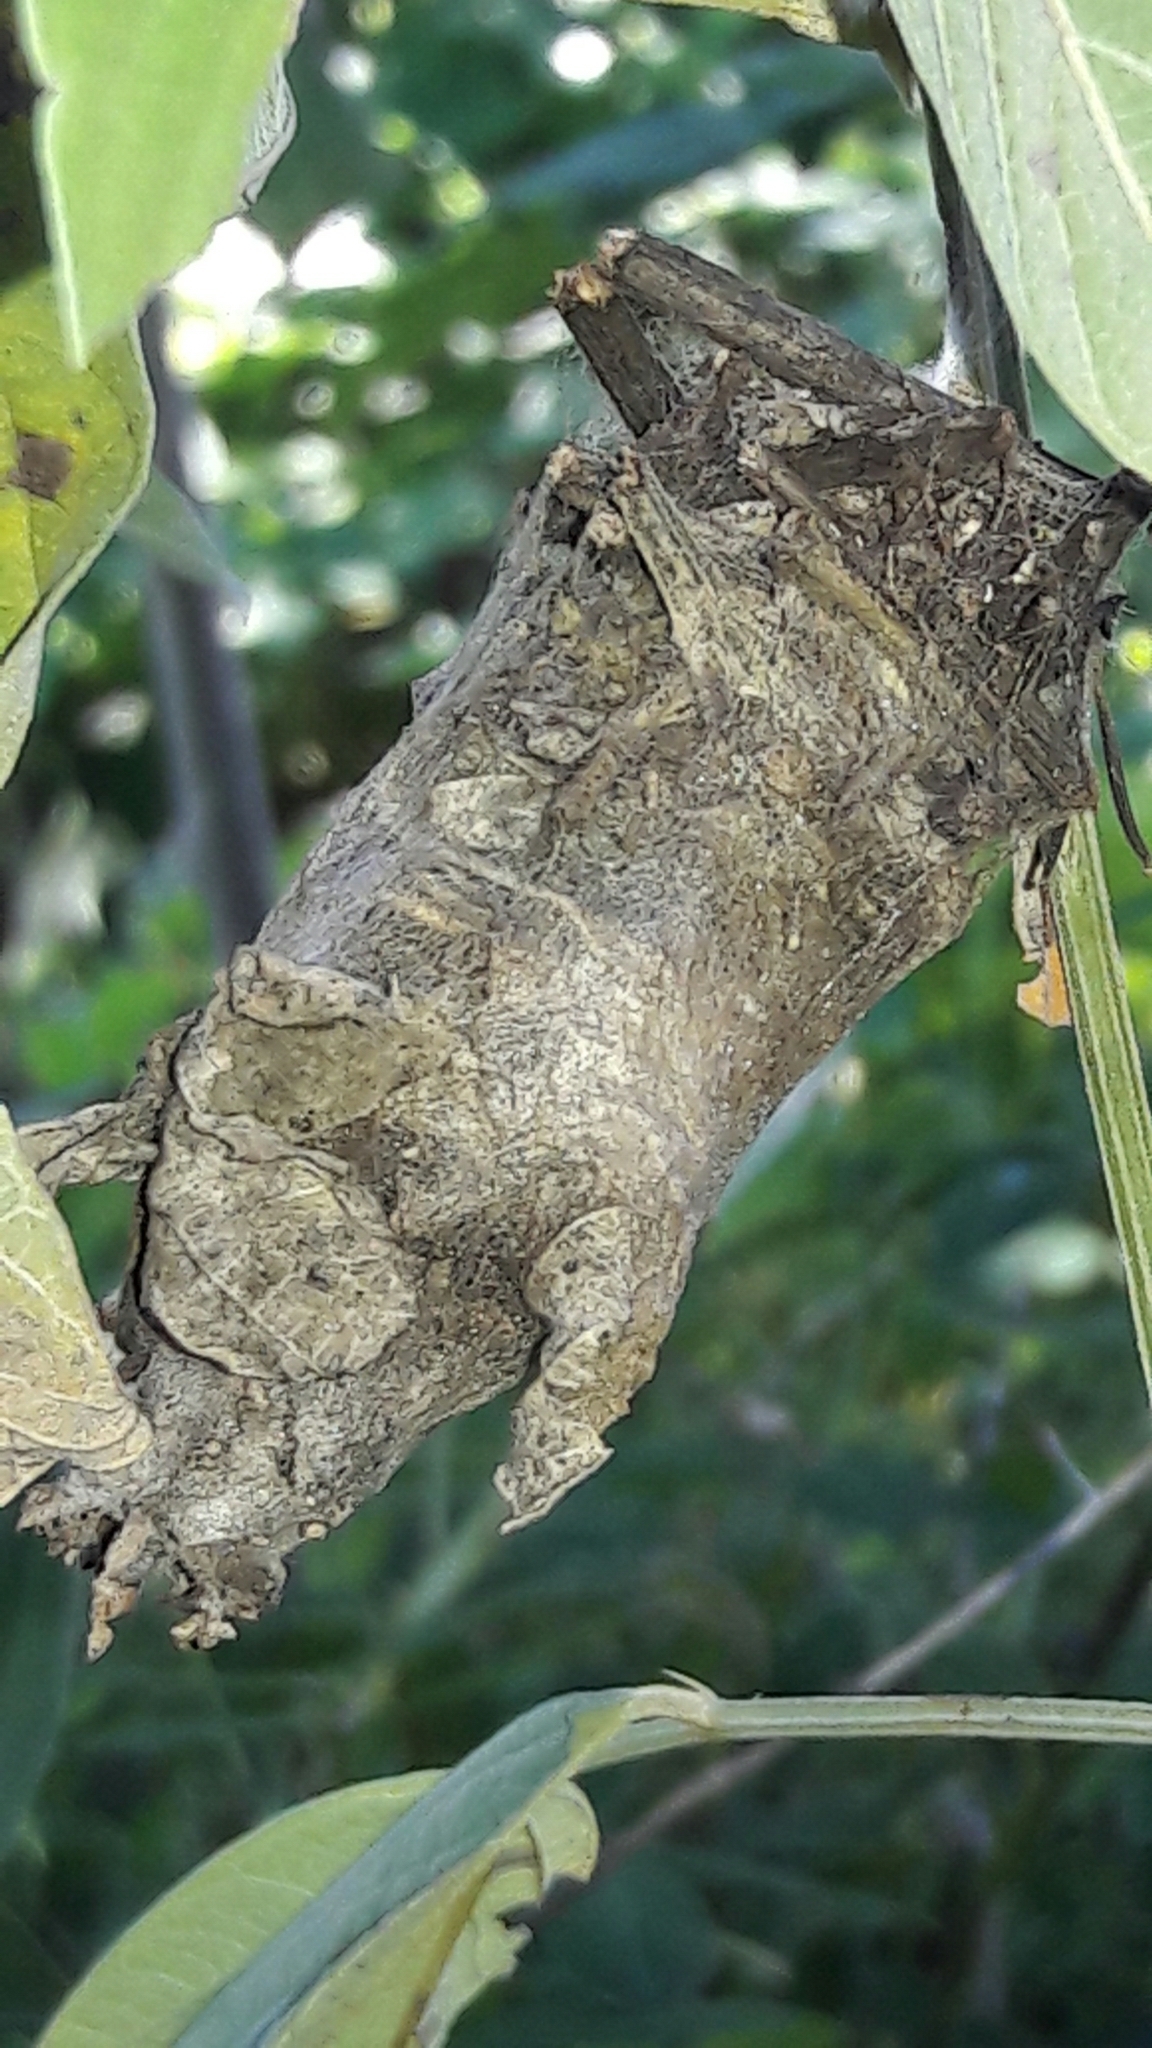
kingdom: Animalia
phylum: Arthropoda
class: Insecta
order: Lepidoptera
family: Psychidae
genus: Oiketicus
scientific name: Oiketicus kirbyi
